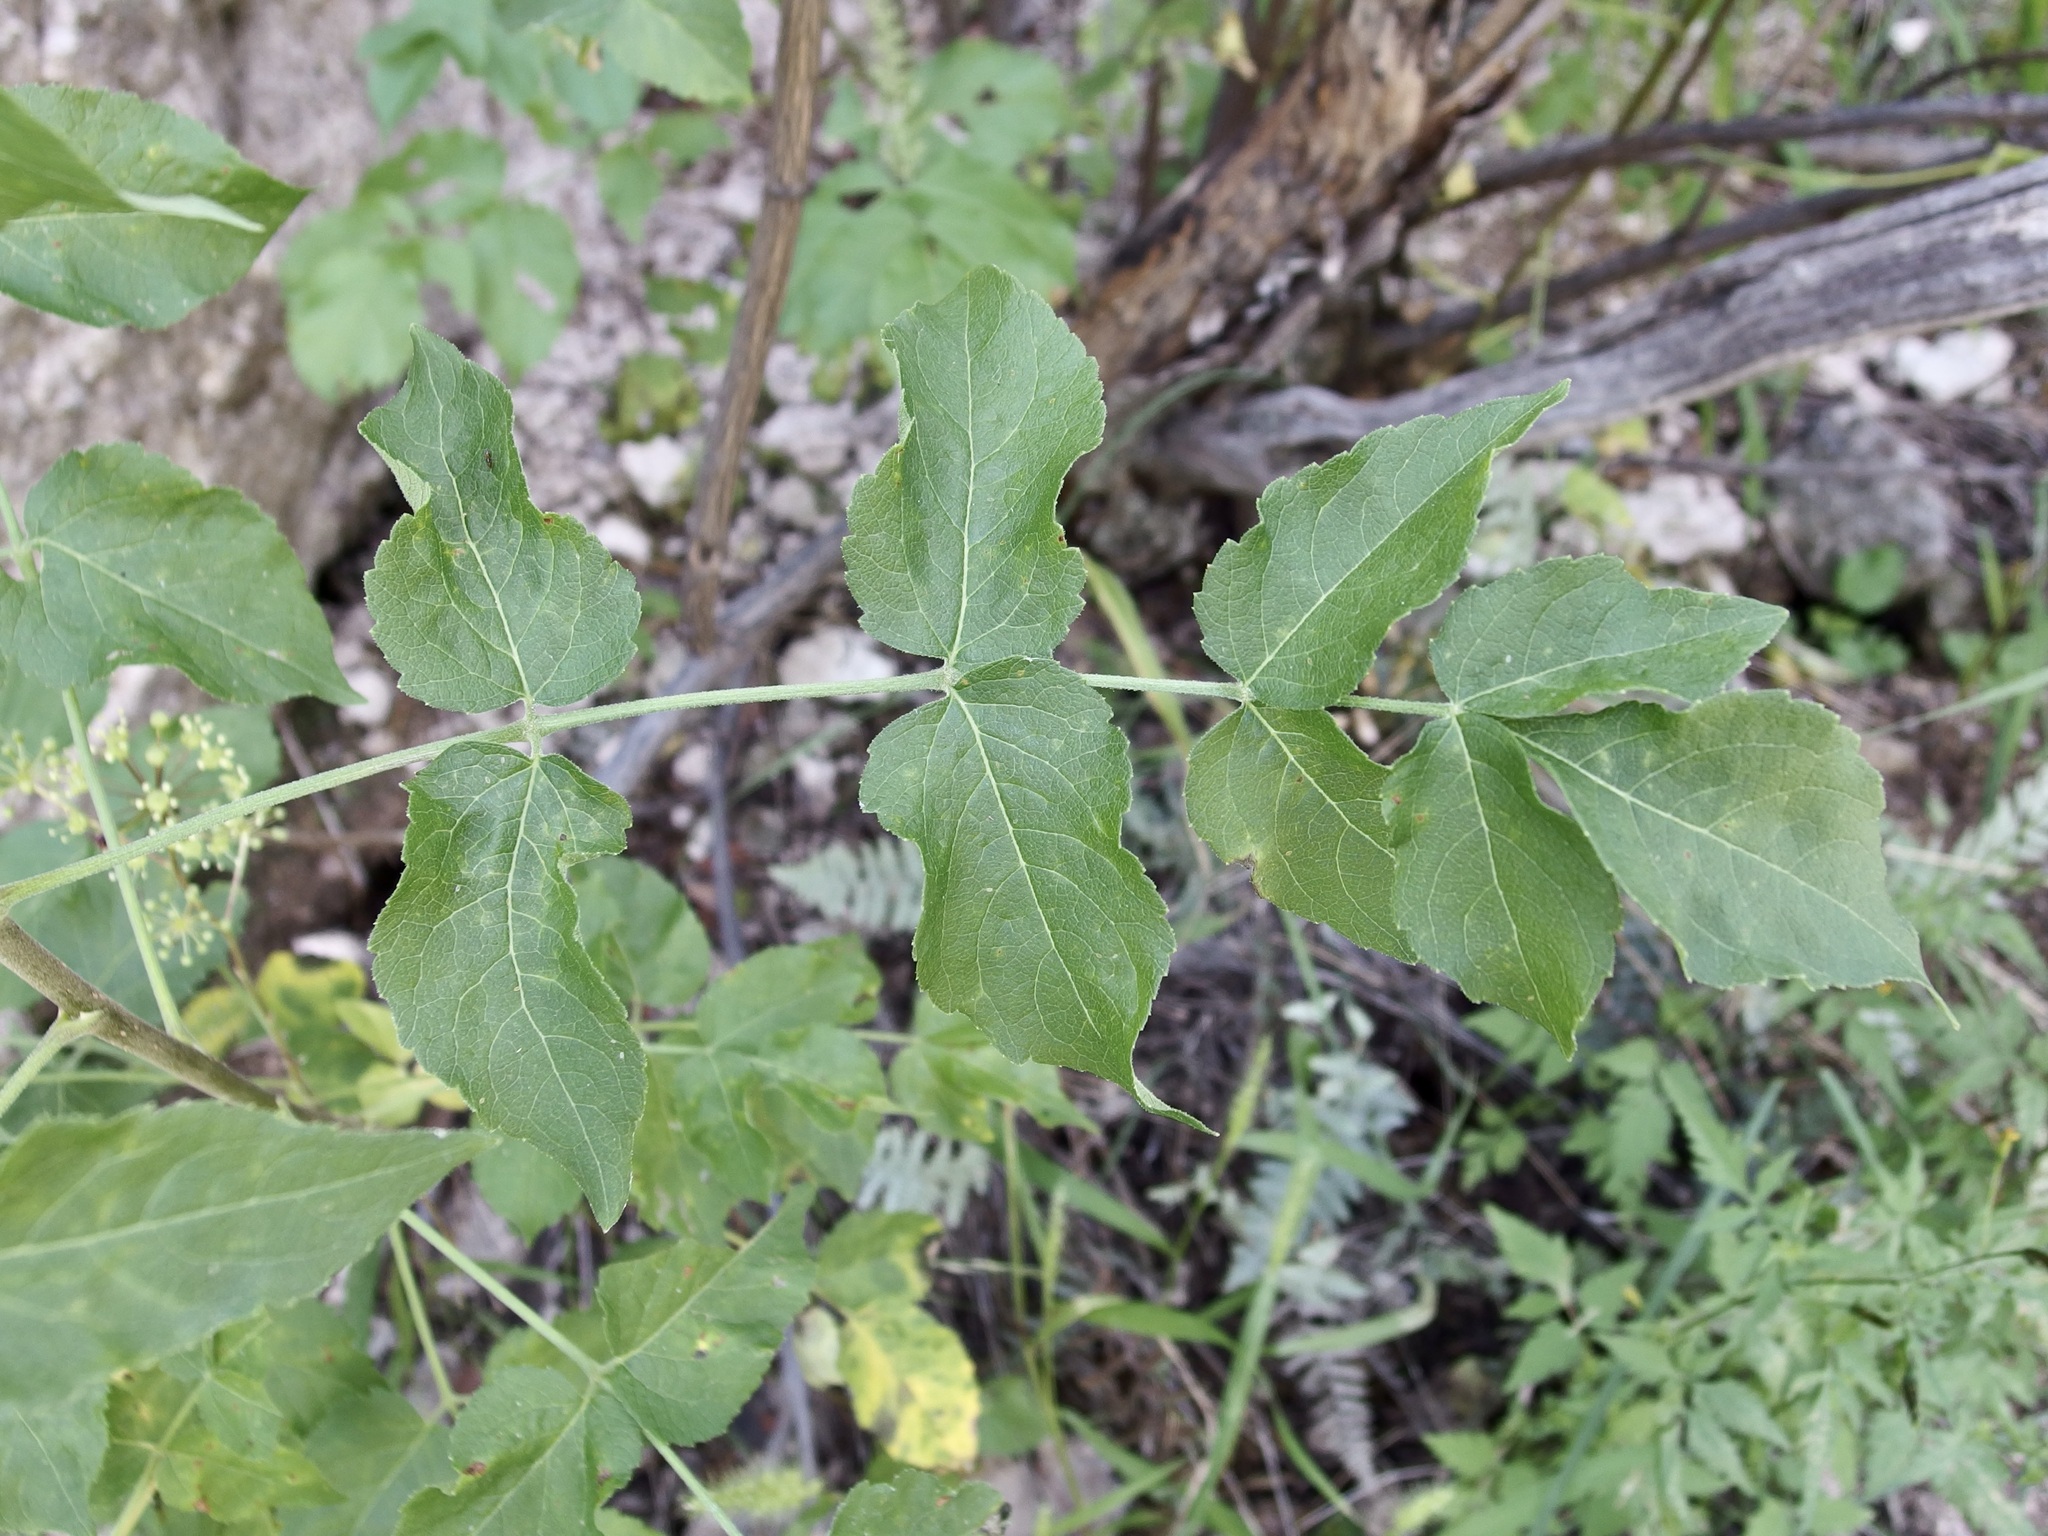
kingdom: Plantae
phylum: Tracheophyta
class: Magnoliopsida
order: Apiales
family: Araliaceae
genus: Aralia
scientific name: Aralia humilis
